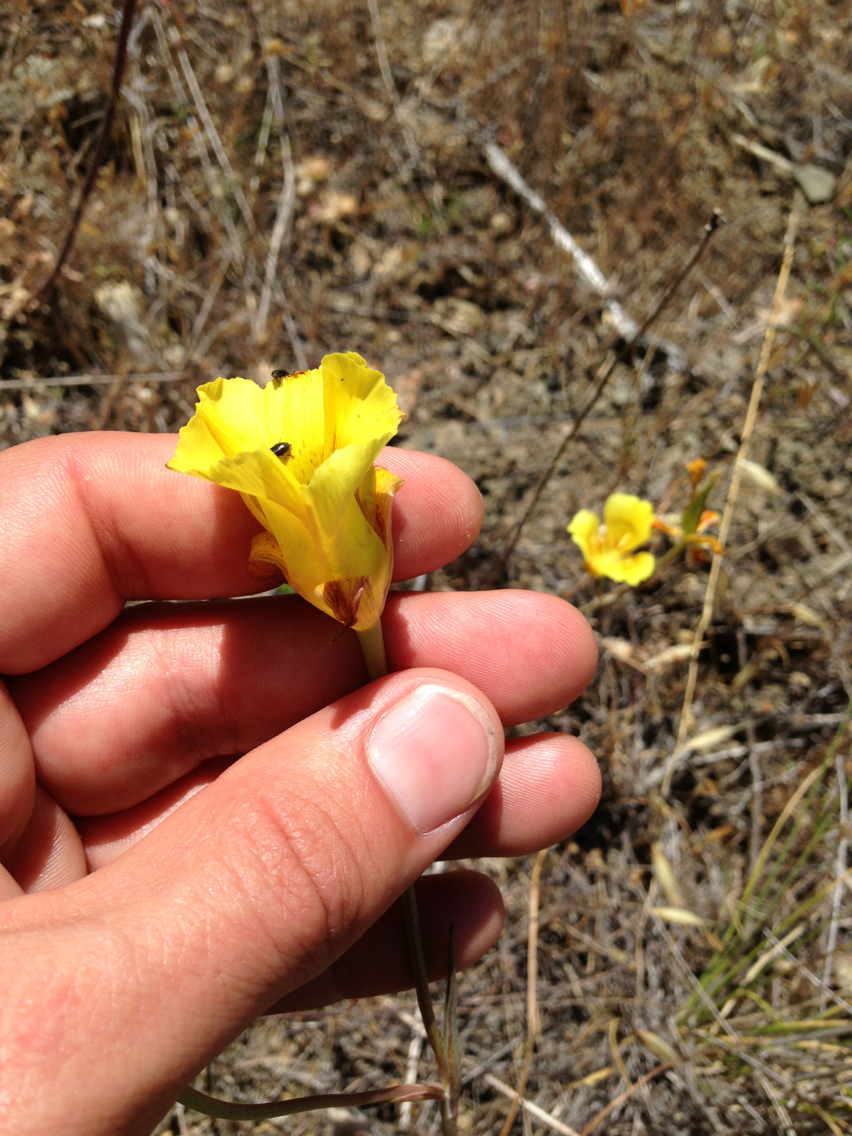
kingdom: Plantae
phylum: Tracheophyta
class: Liliopsida
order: Liliales
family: Liliaceae
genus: Calochortus
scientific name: Calochortus luteus
